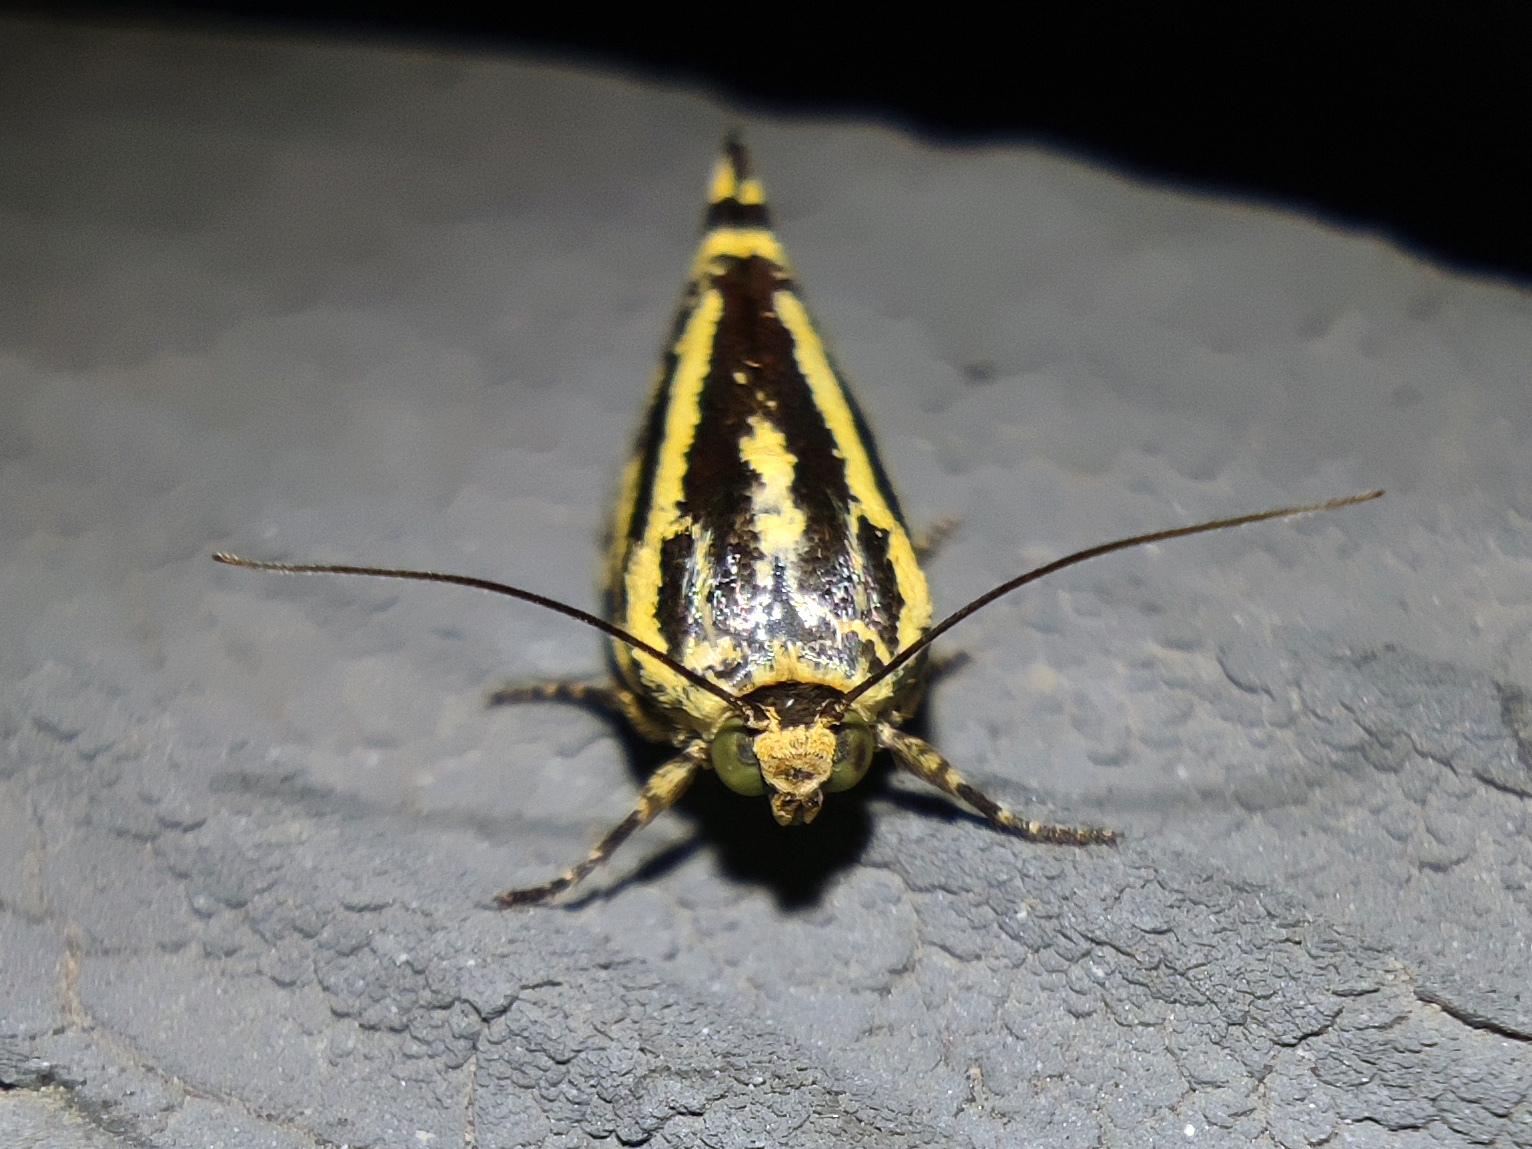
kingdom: Animalia
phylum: Arthropoda
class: Insecta
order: Lepidoptera
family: Noctuidae
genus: Acontia
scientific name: Acontia trabealis
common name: Spotted sulphur
